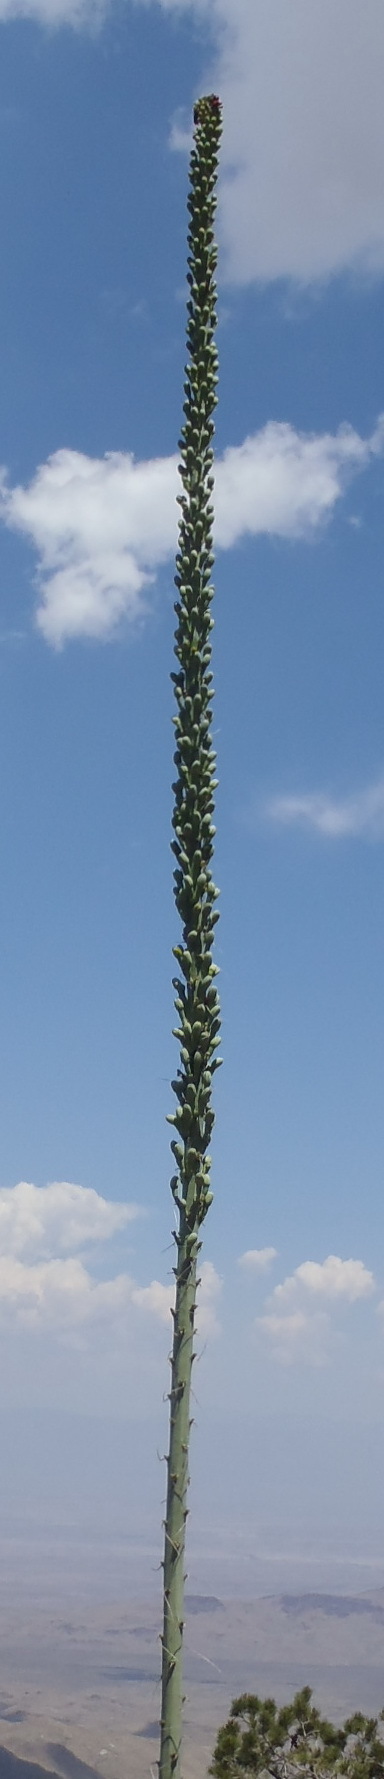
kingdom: Plantae
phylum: Tracheophyta
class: Liliopsida
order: Asparagales
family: Asparagaceae
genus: Agave
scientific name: Agave lechuguilla
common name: Lecheguilla agave
